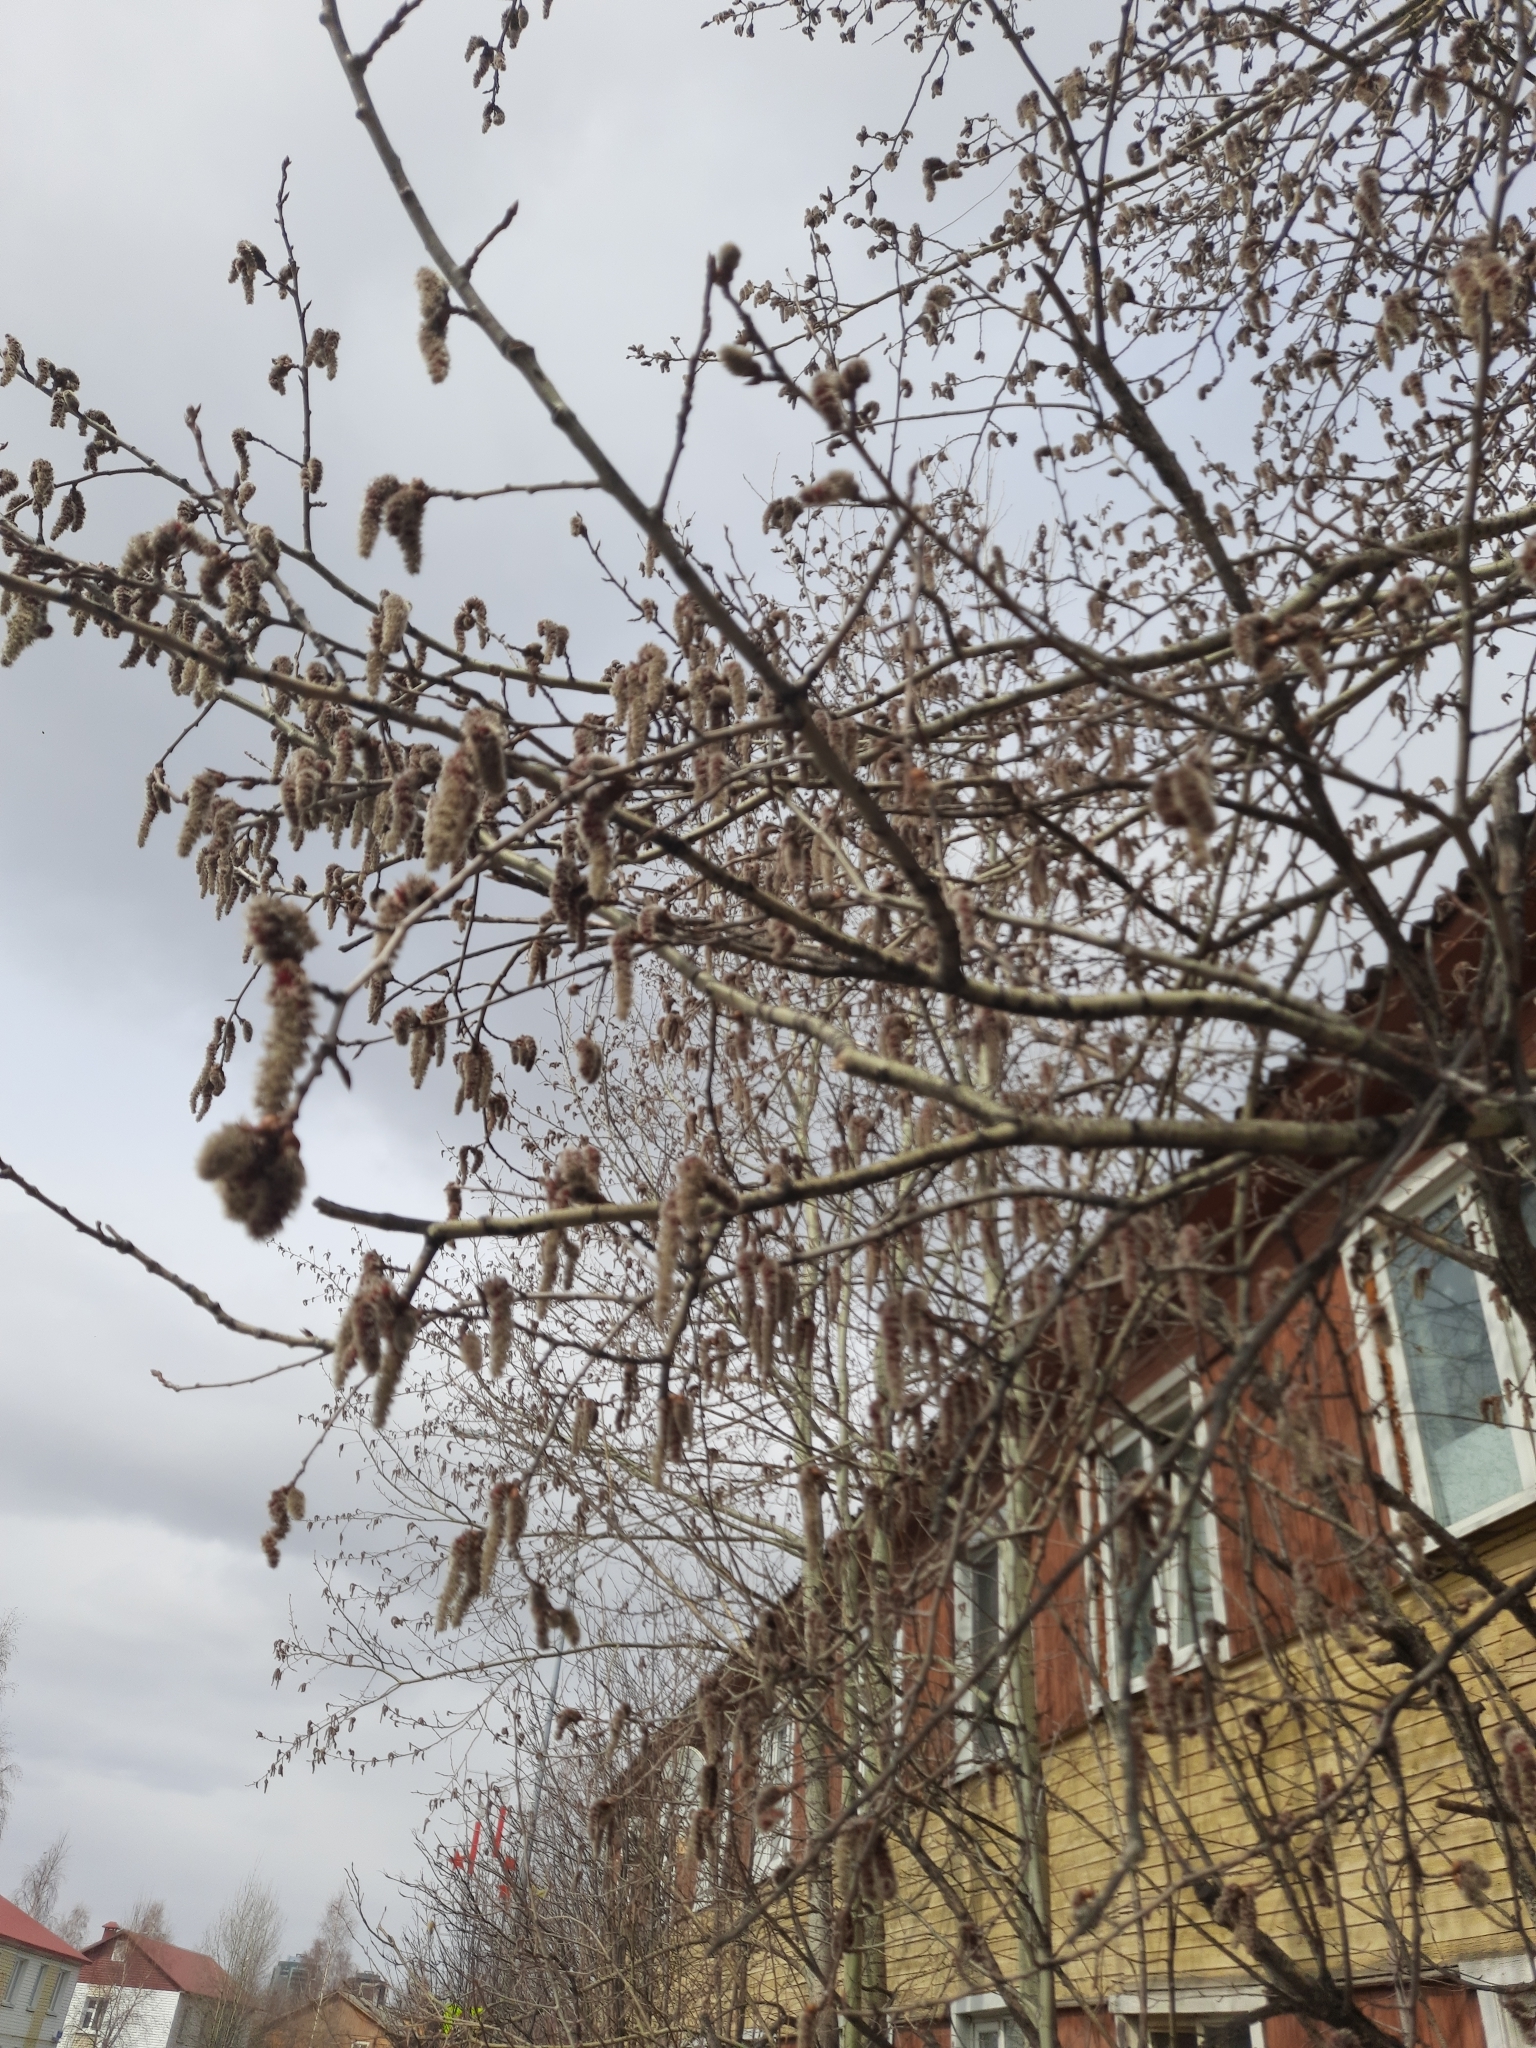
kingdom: Plantae
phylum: Tracheophyta
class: Magnoliopsida
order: Malpighiales
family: Salicaceae
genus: Populus
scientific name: Populus tremula
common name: European aspen
